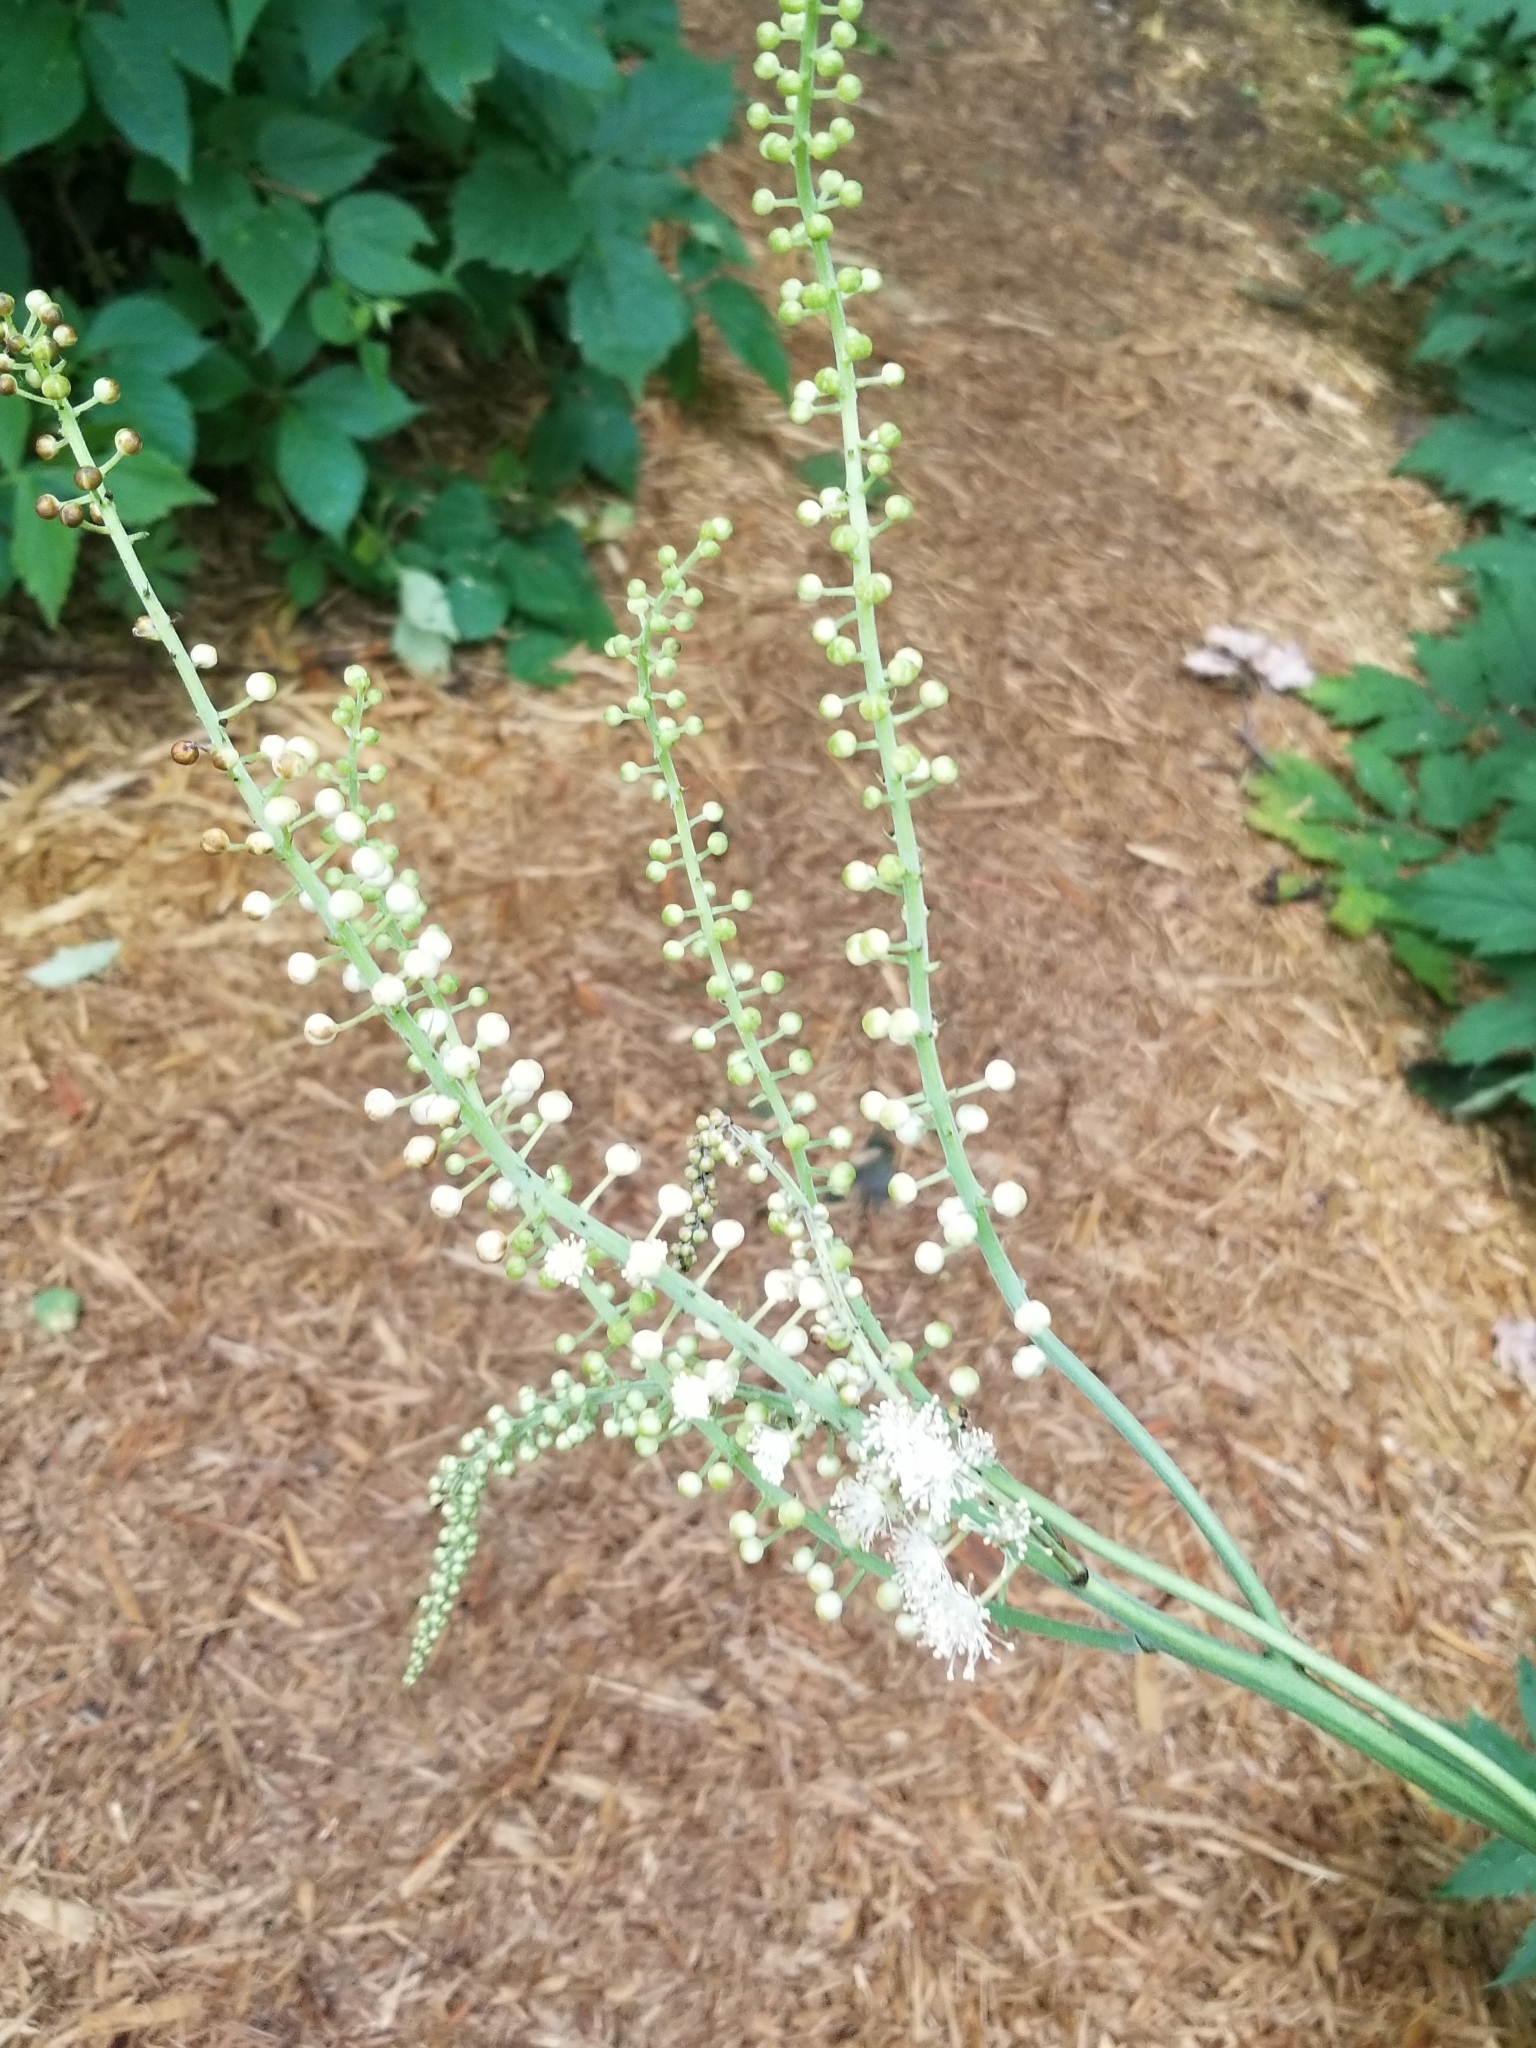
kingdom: Plantae
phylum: Tracheophyta
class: Magnoliopsida
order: Ranunculales
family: Ranunculaceae
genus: Actaea
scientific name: Actaea racemosa
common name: Black cohosh
